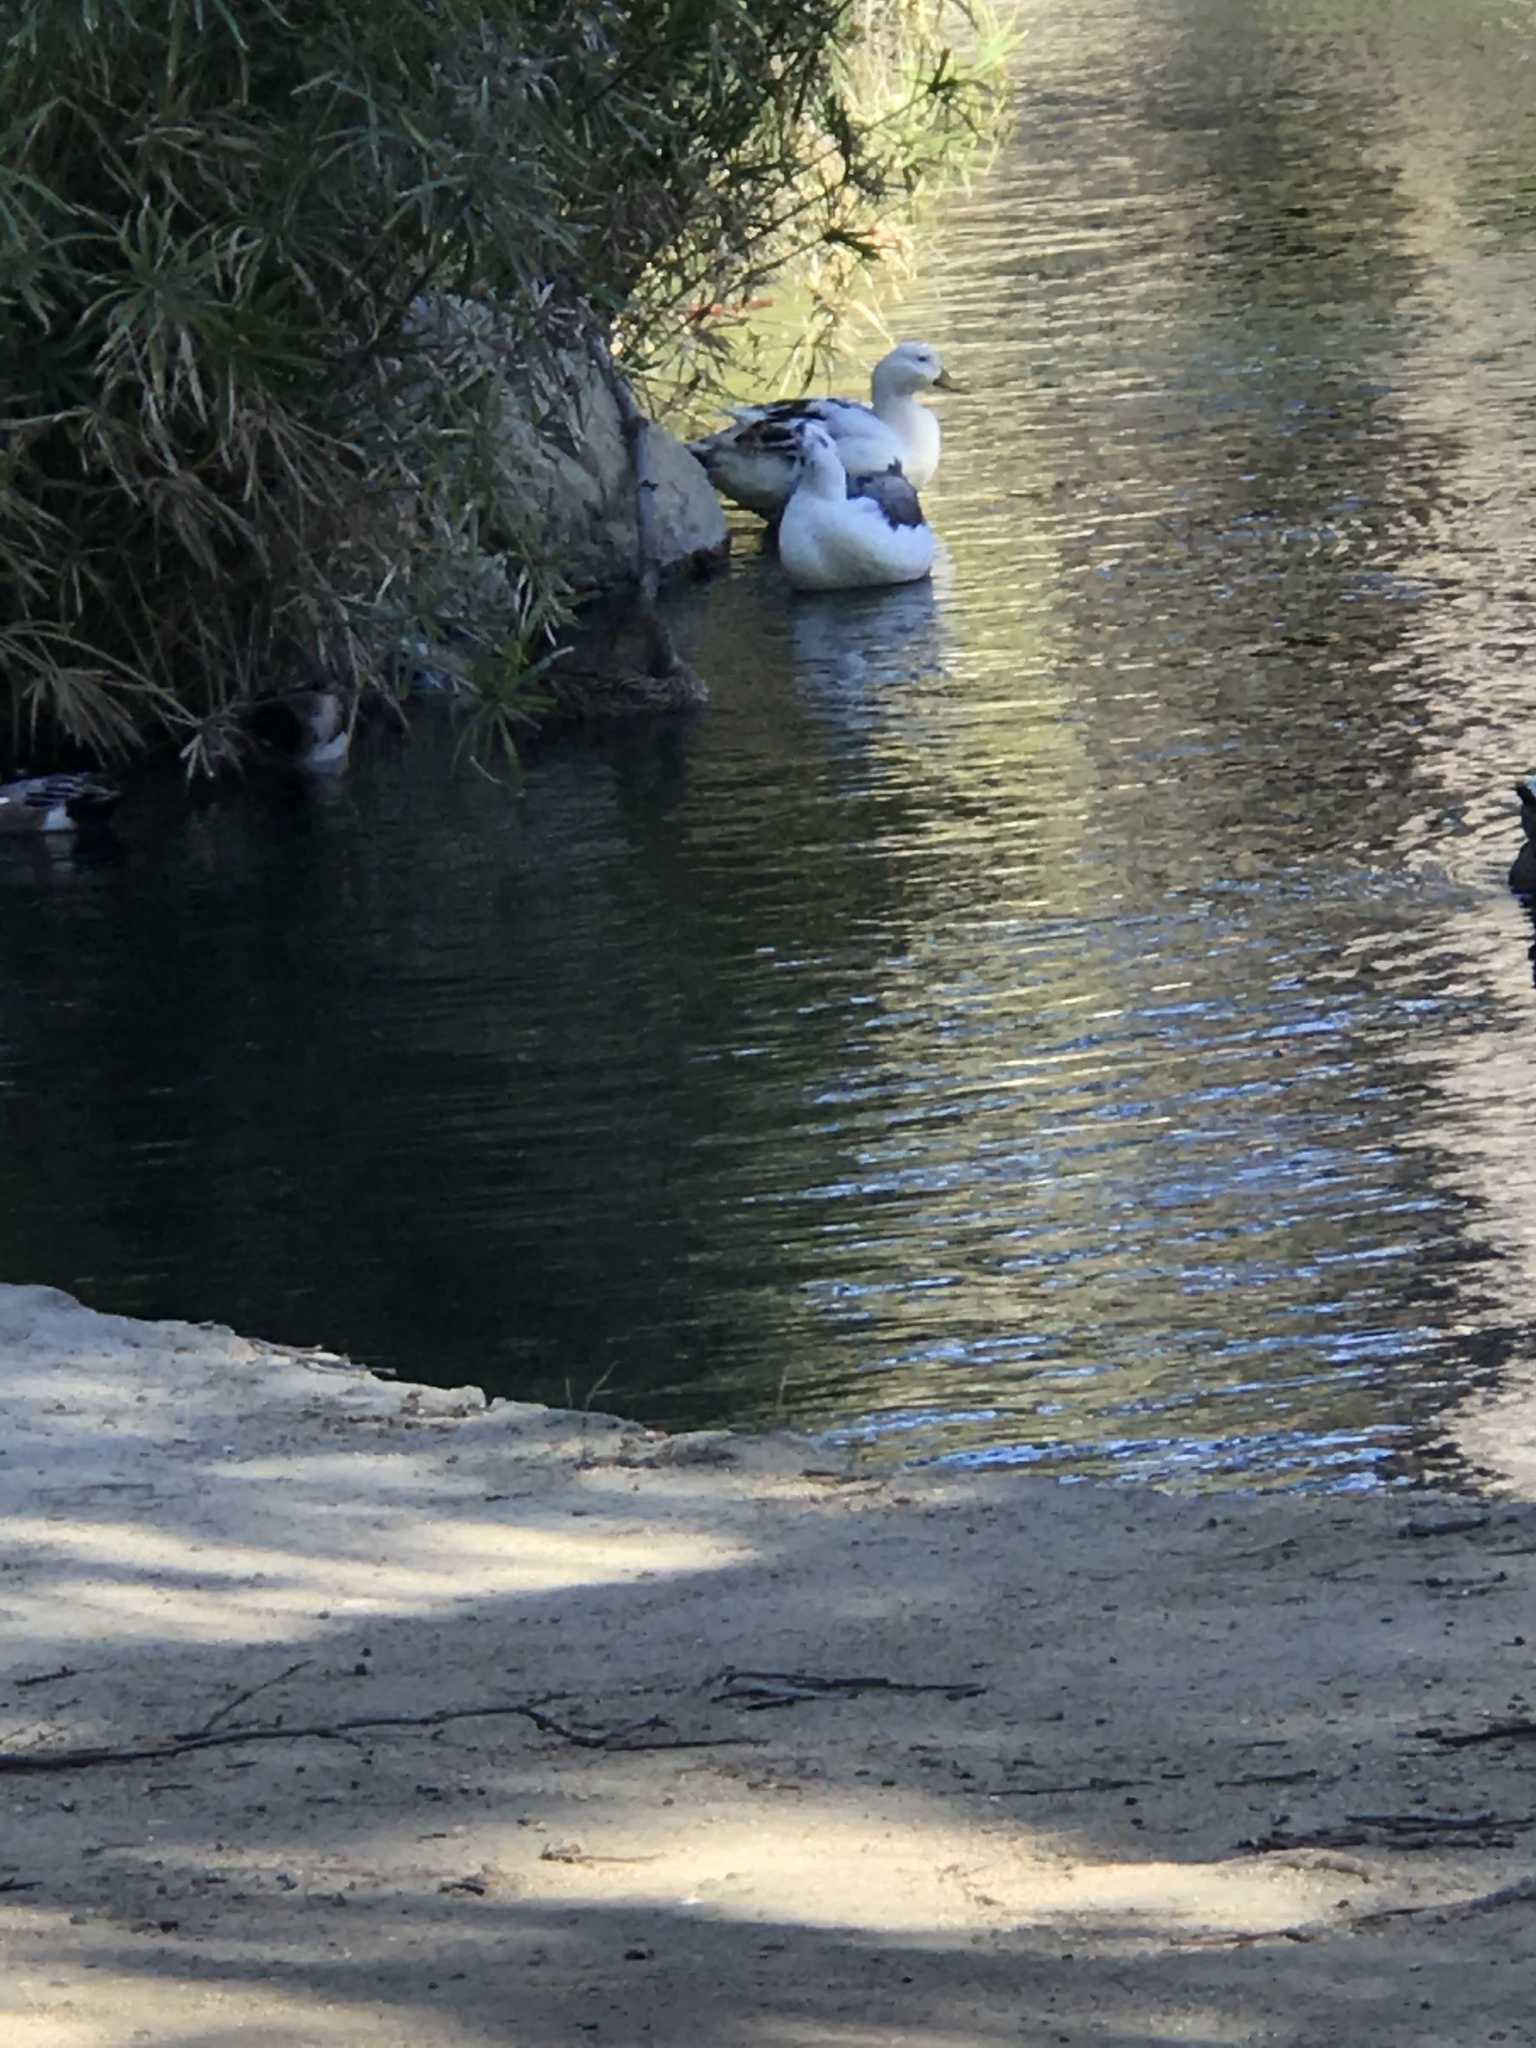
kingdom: Animalia
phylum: Chordata
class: Aves
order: Anseriformes
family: Anatidae
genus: Anas
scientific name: Anas platyrhynchos
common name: Mallard
